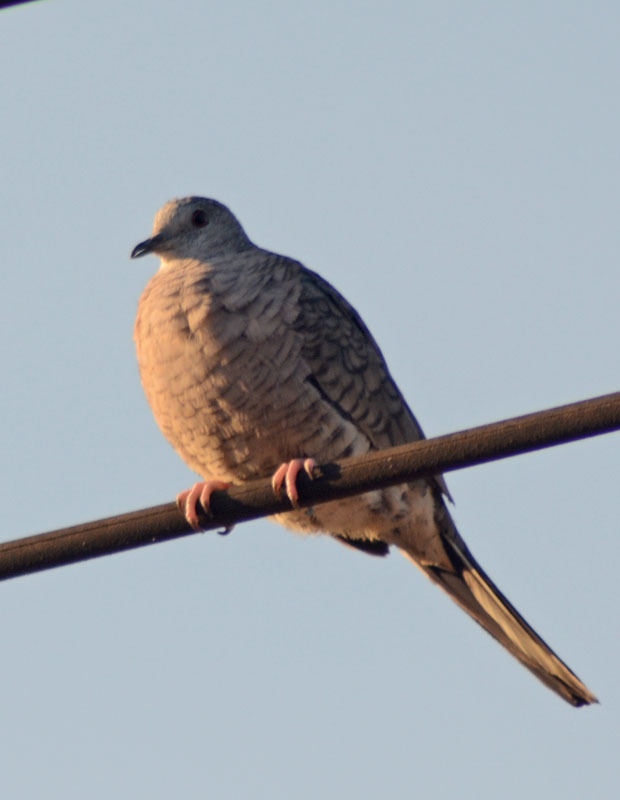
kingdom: Animalia
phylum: Chordata
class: Aves
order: Columbiformes
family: Columbidae
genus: Columbina
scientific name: Columbina inca
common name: Inca dove
